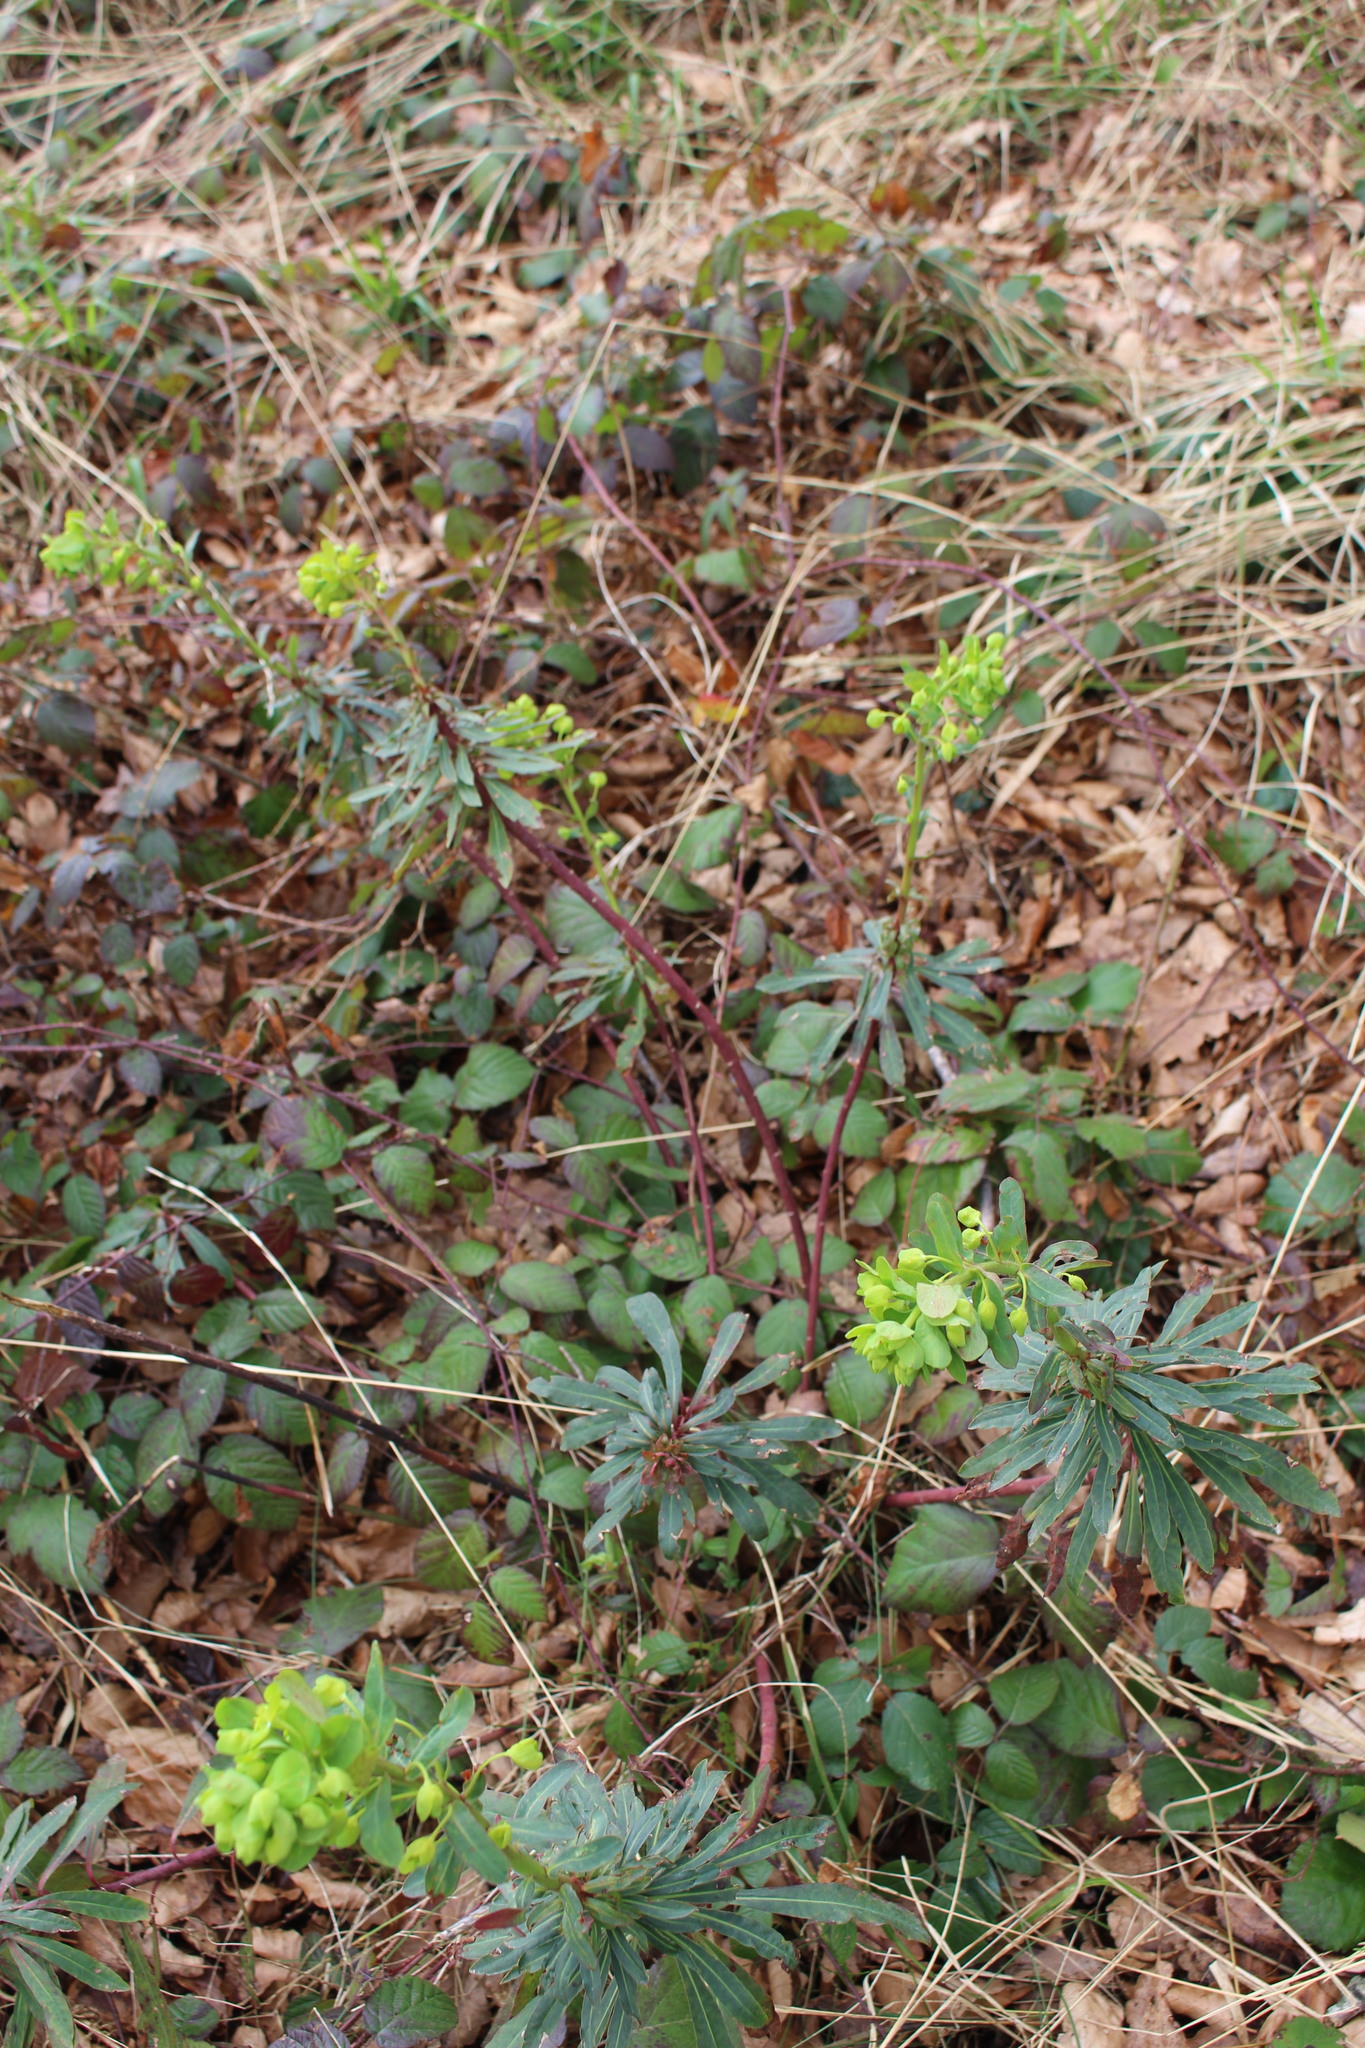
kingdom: Plantae
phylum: Tracheophyta
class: Magnoliopsida
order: Malpighiales
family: Euphorbiaceae
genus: Euphorbia
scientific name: Euphorbia amygdaloides
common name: Wood spurge
